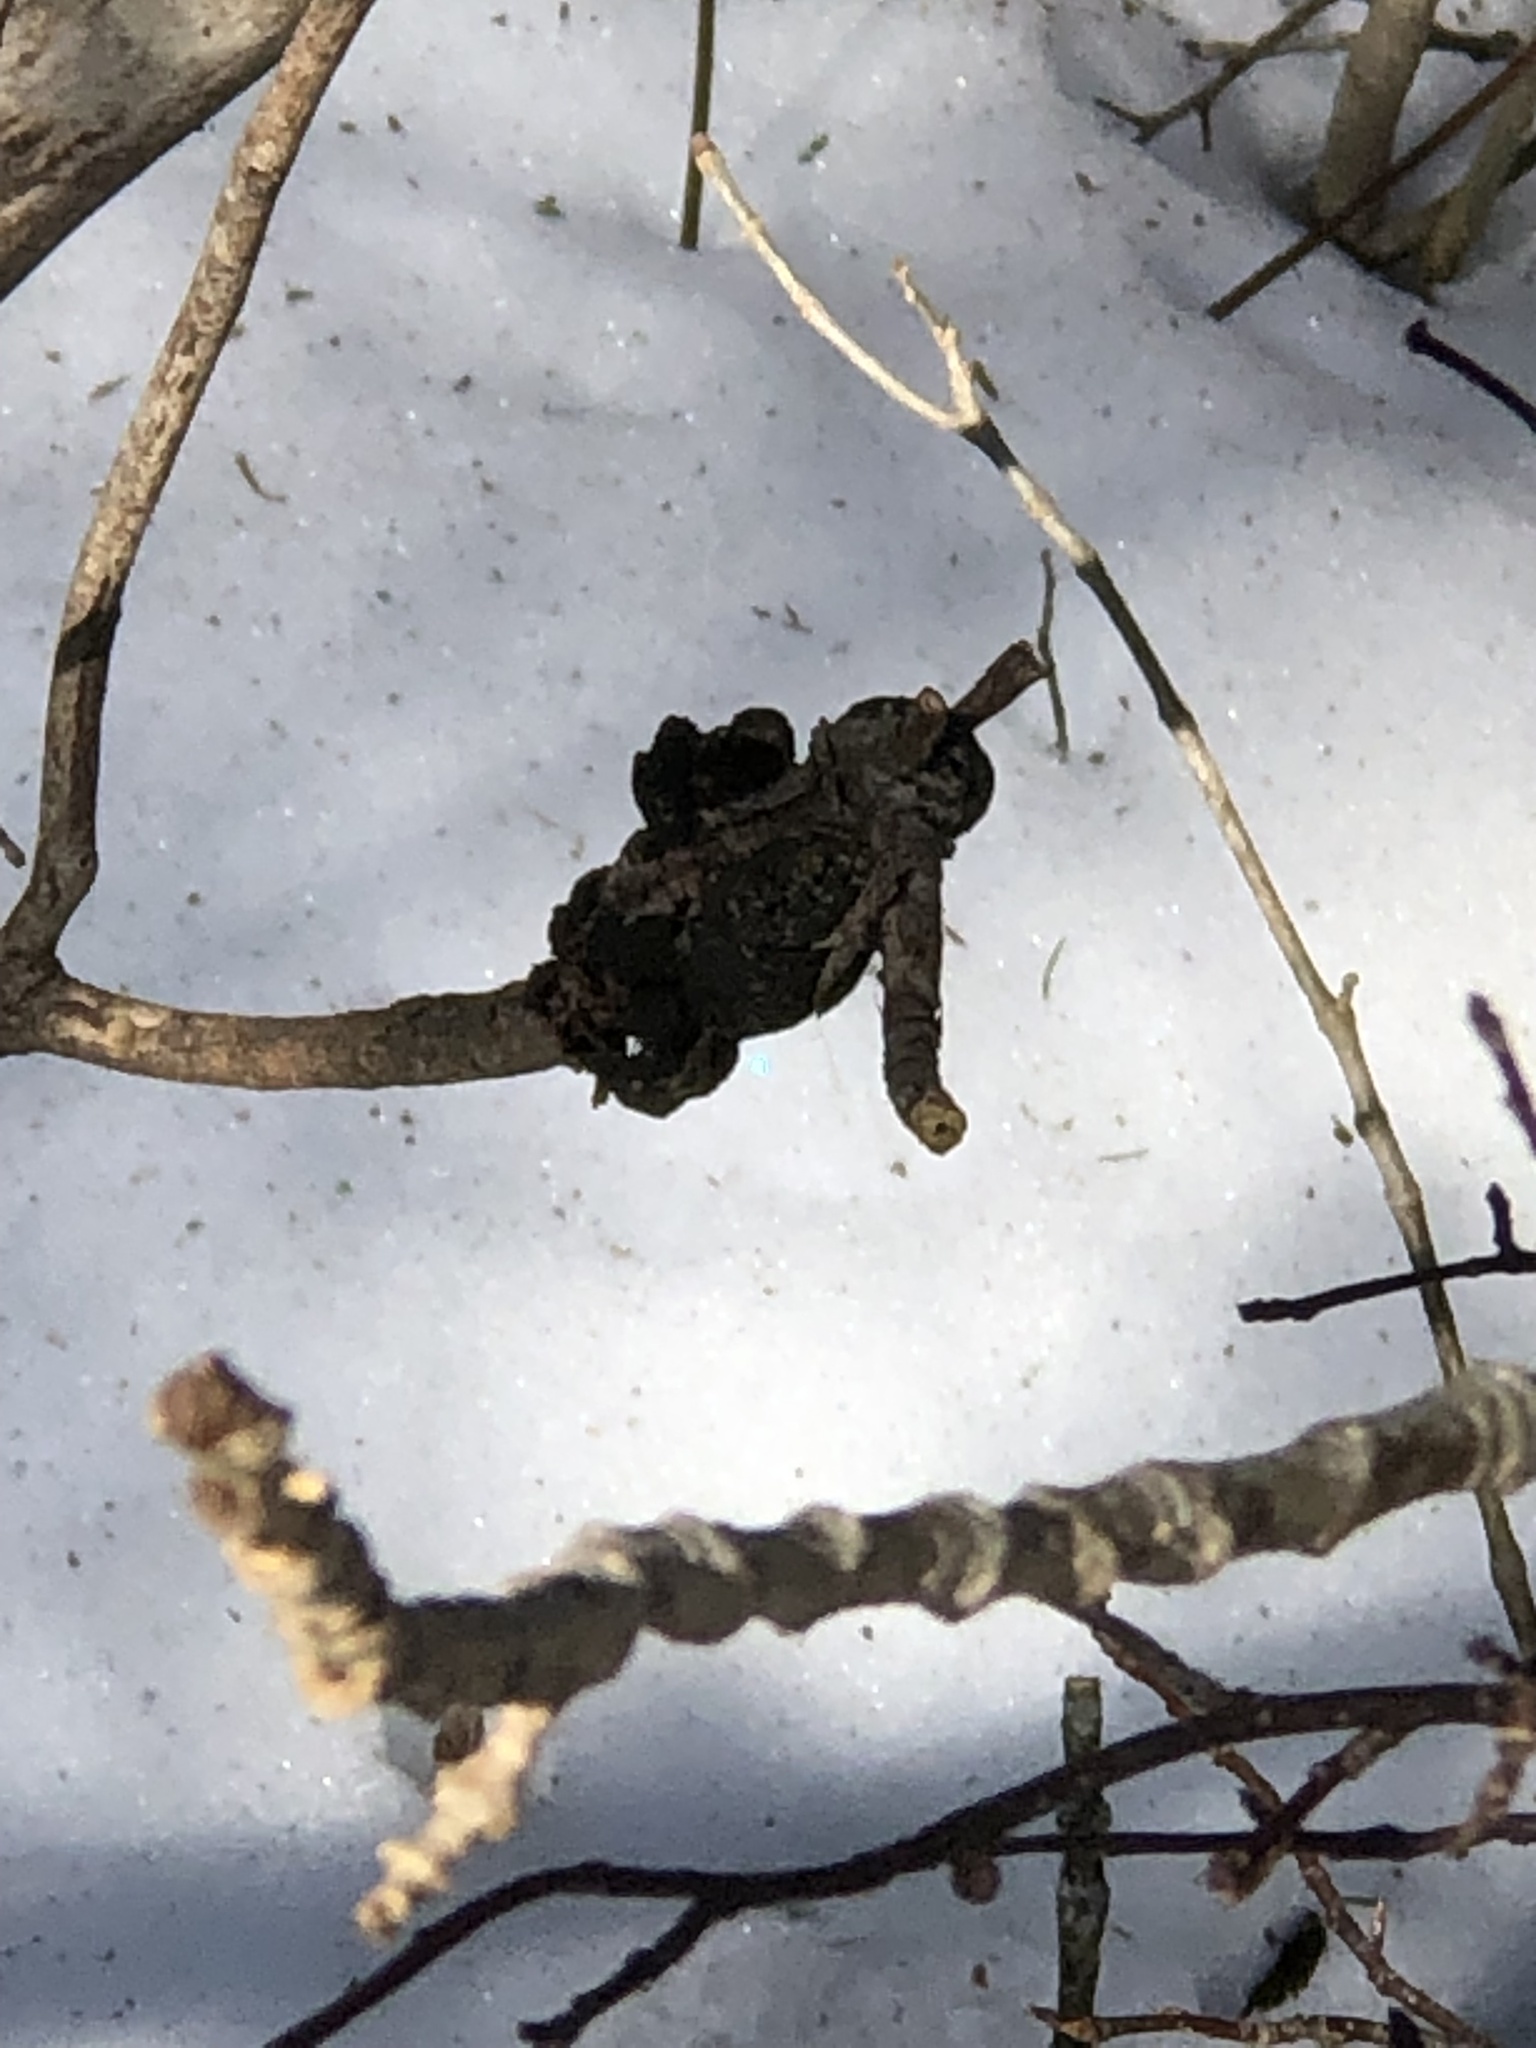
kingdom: Fungi
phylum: Ascomycota
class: Dothideomycetes
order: Venturiales
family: Venturiaceae
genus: Apiosporina
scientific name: Apiosporina morbosa
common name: Black knot
